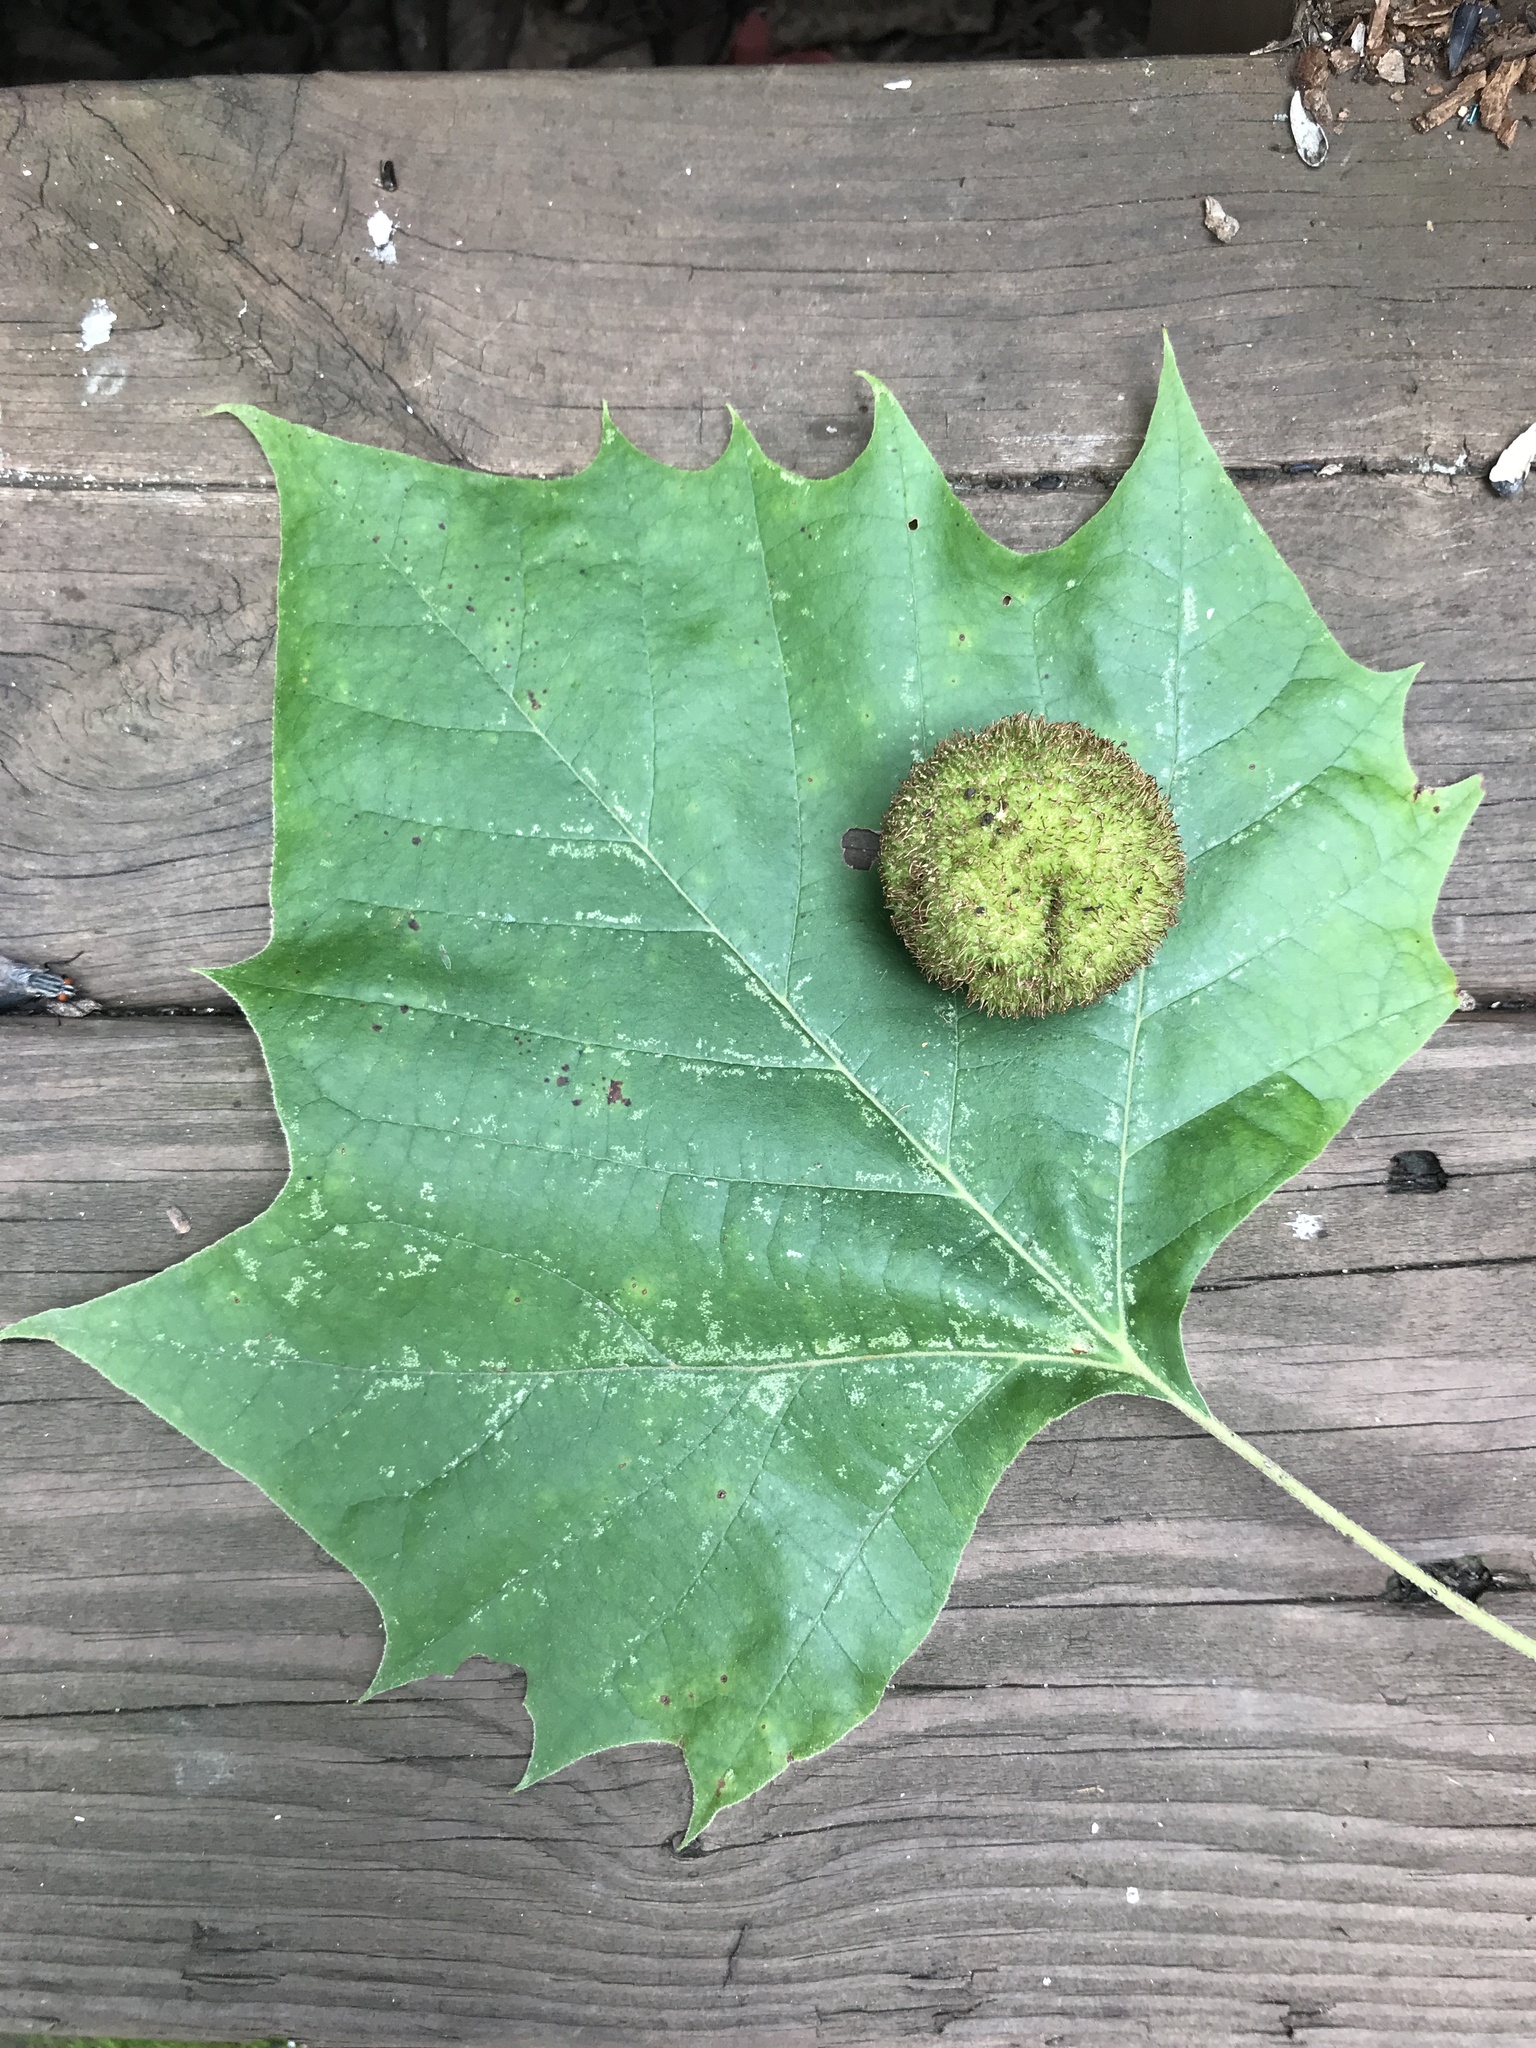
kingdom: Plantae
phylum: Tracheophyta
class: Magnoliopsida
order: Proteales
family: Platanaceae
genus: Platanus
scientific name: Platanus occidentalis
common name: American sycamore
